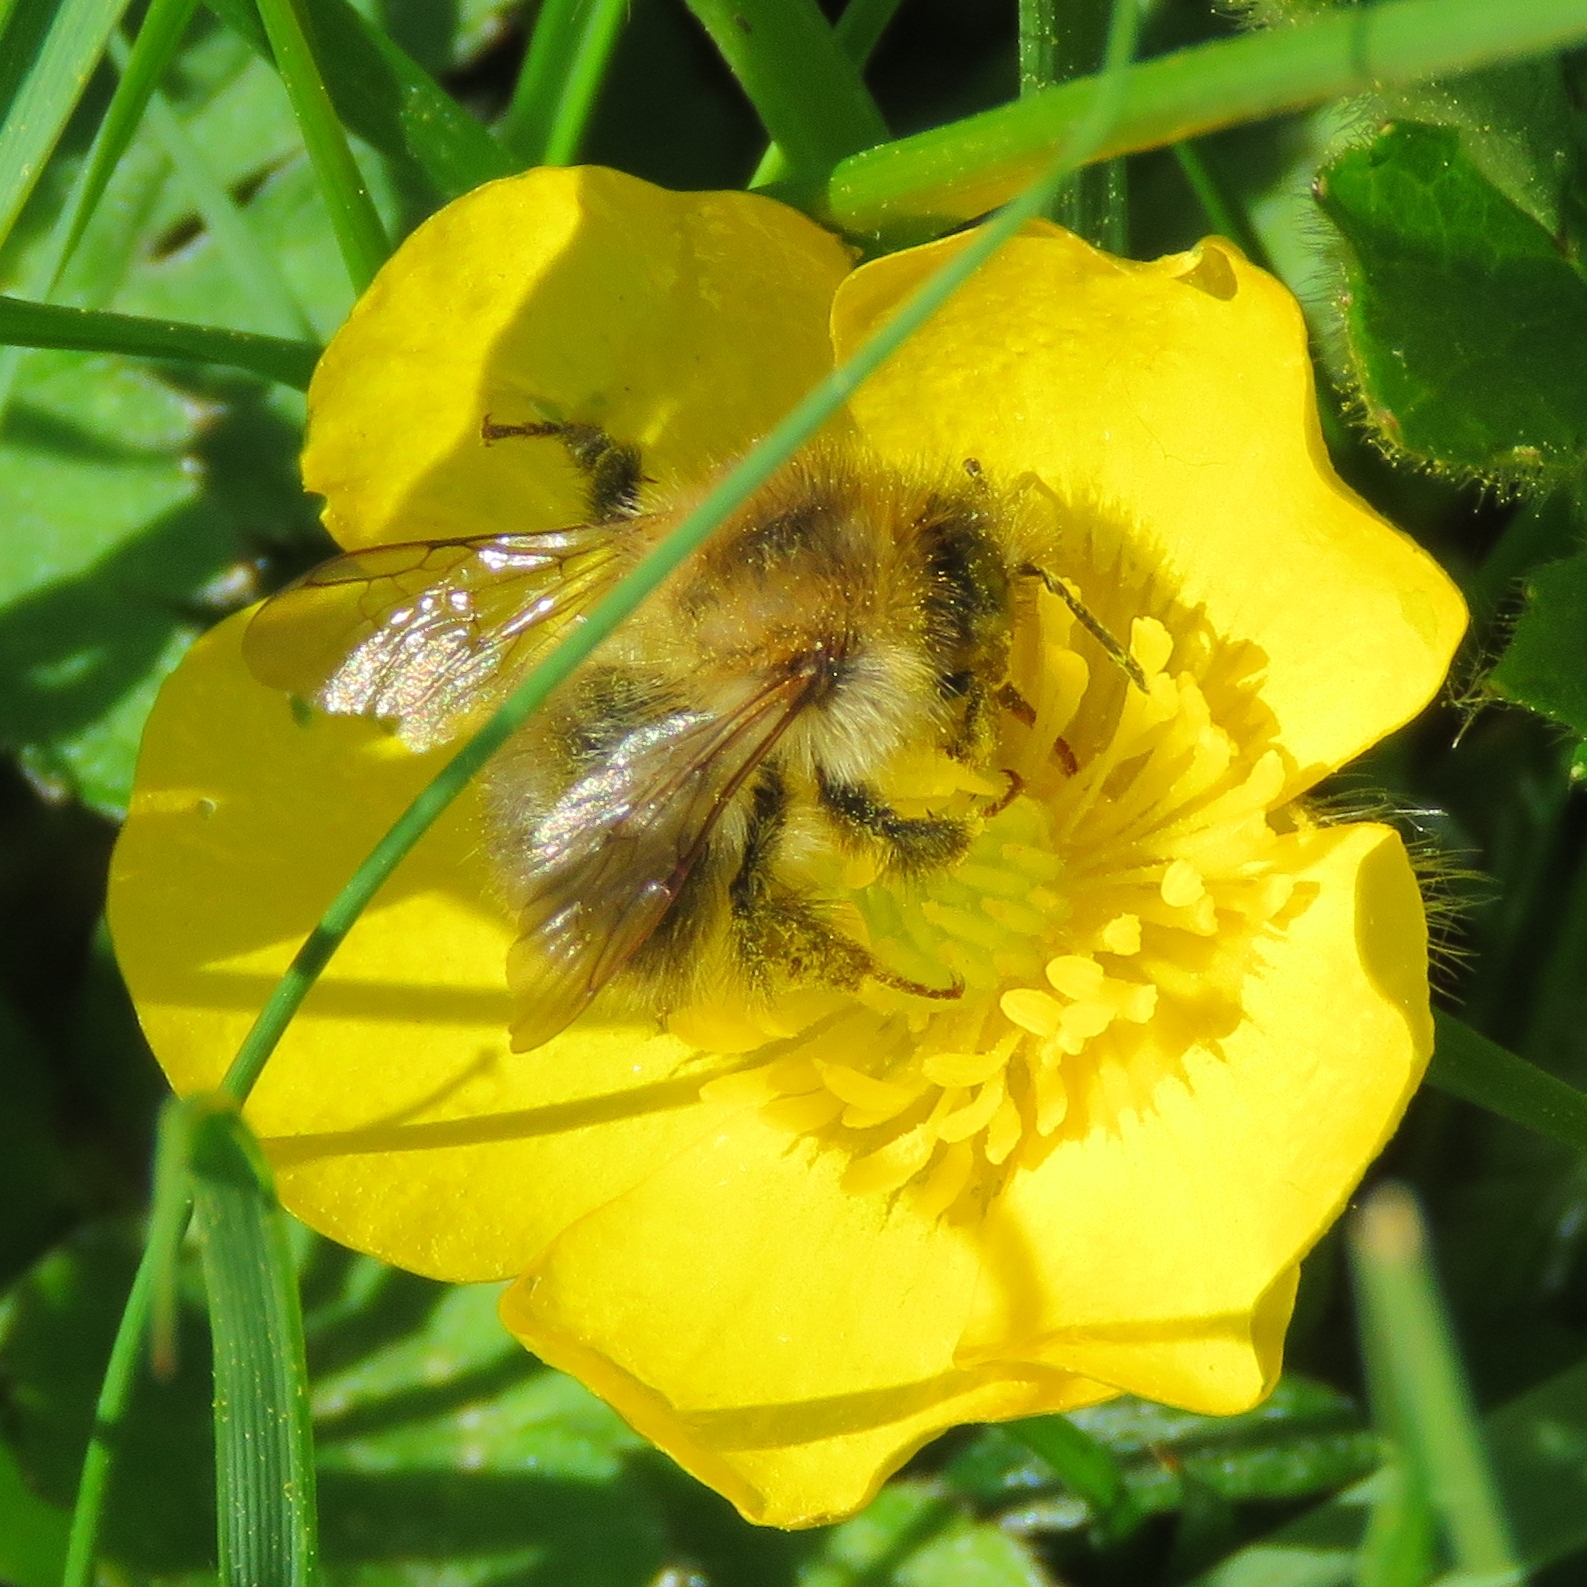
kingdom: Animalia
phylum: Arthropoda
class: Insecta
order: Hymenoptera
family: Apidae
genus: Bombus
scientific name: Bombus pascuorum
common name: Common carder bee
